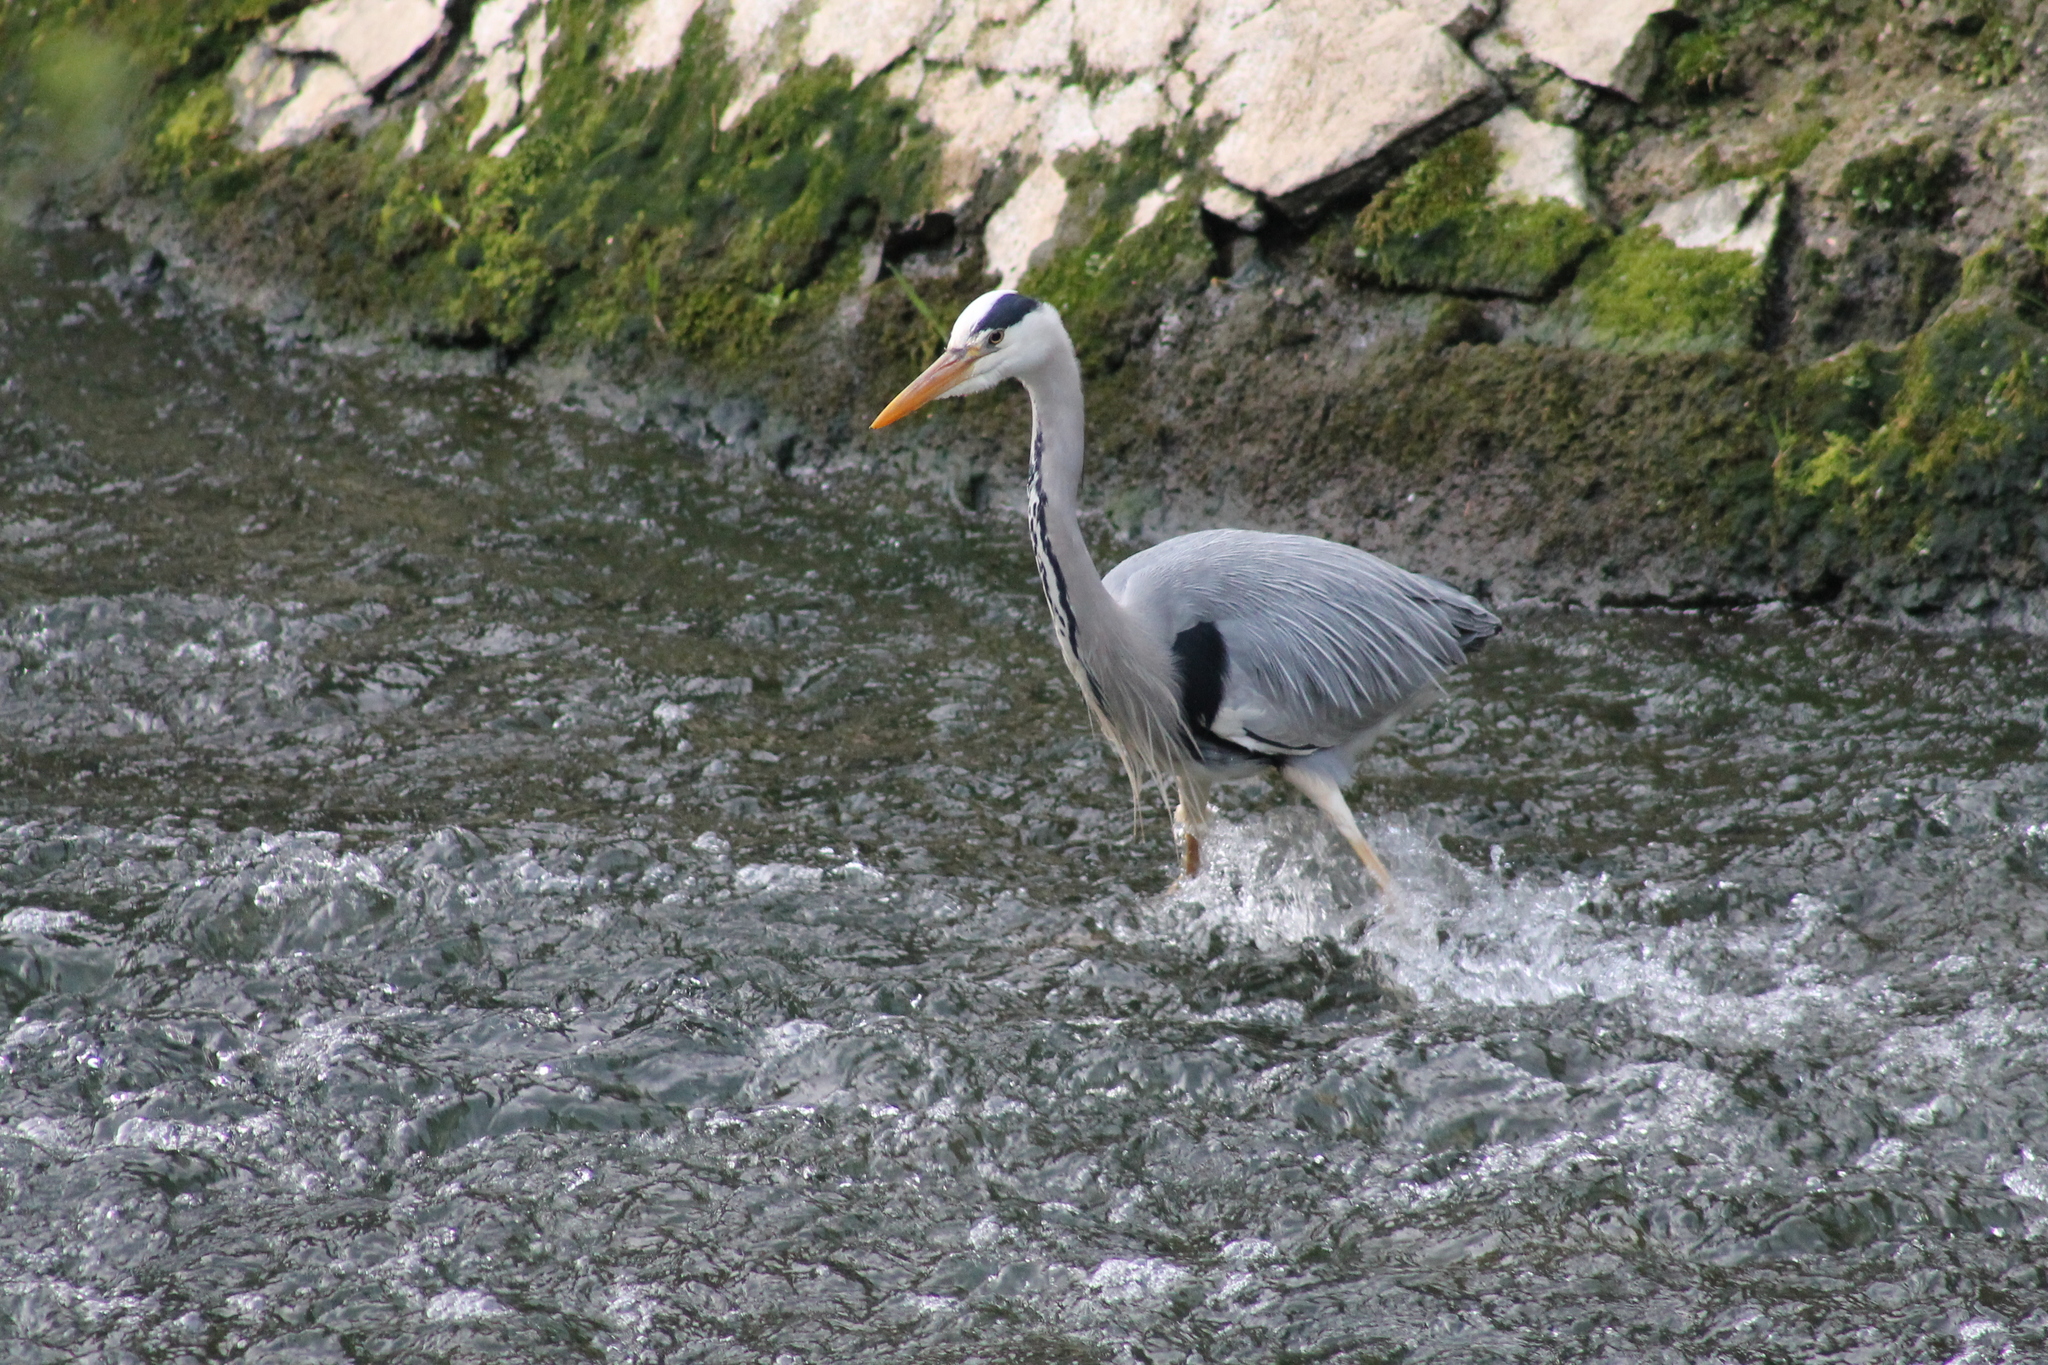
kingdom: Animalia
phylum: Chordata
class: Aves
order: Pelecaniformes
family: Ardeidae
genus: Ardea
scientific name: Ardea cinerea
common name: Grey heron
